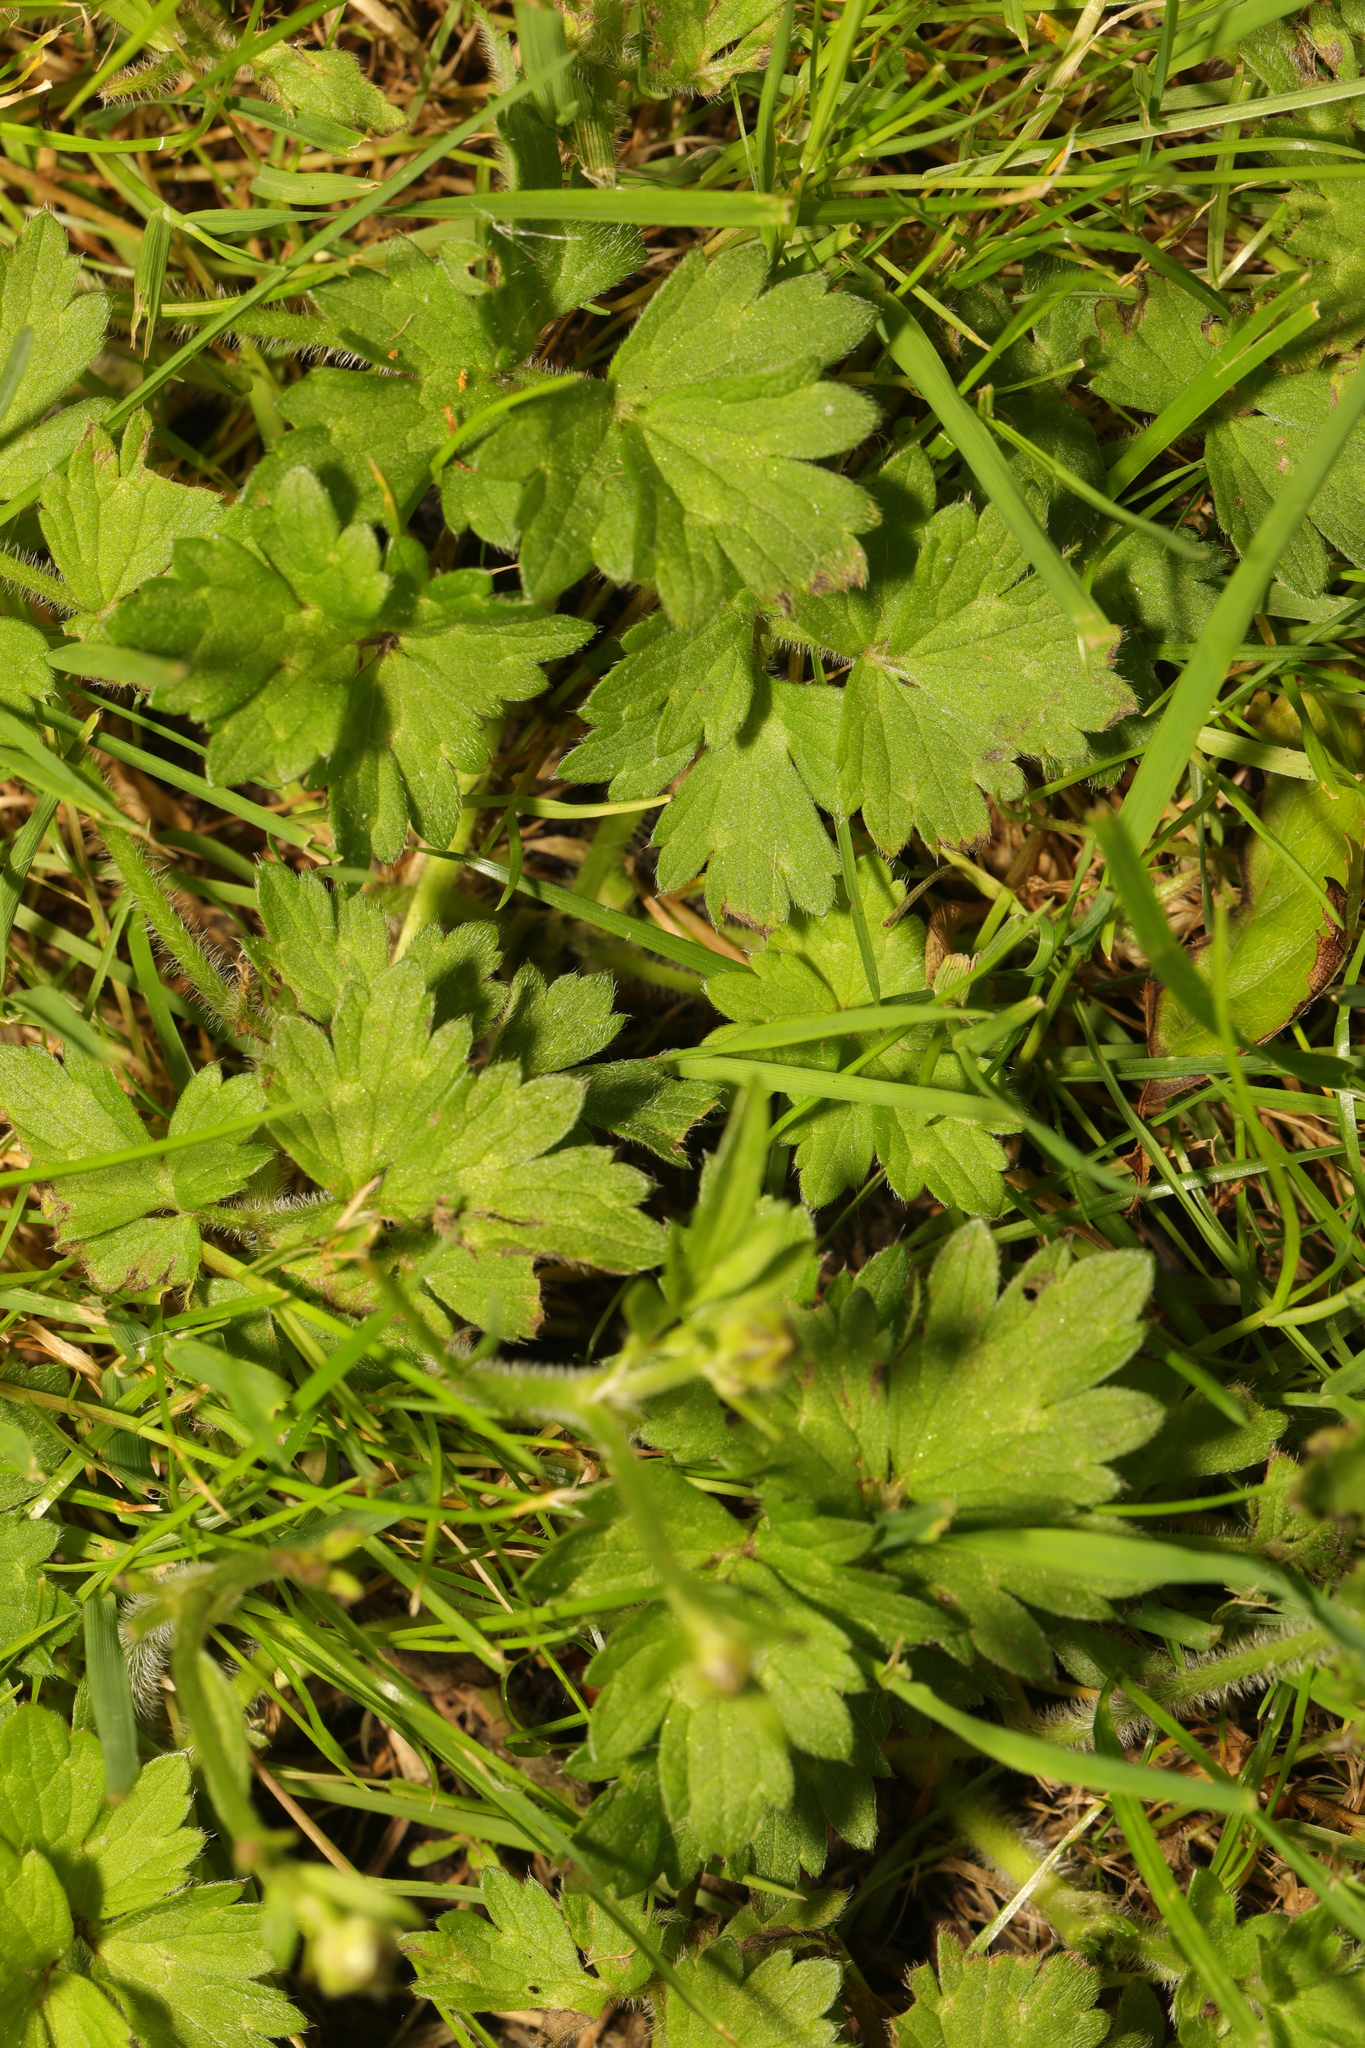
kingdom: Plantae
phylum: Tracheophyta
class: Magnoliopsida
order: Ranunculales
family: Ranunculaceae
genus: Ranunculus
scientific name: Ranunculus repens
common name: Creeping buttercup
